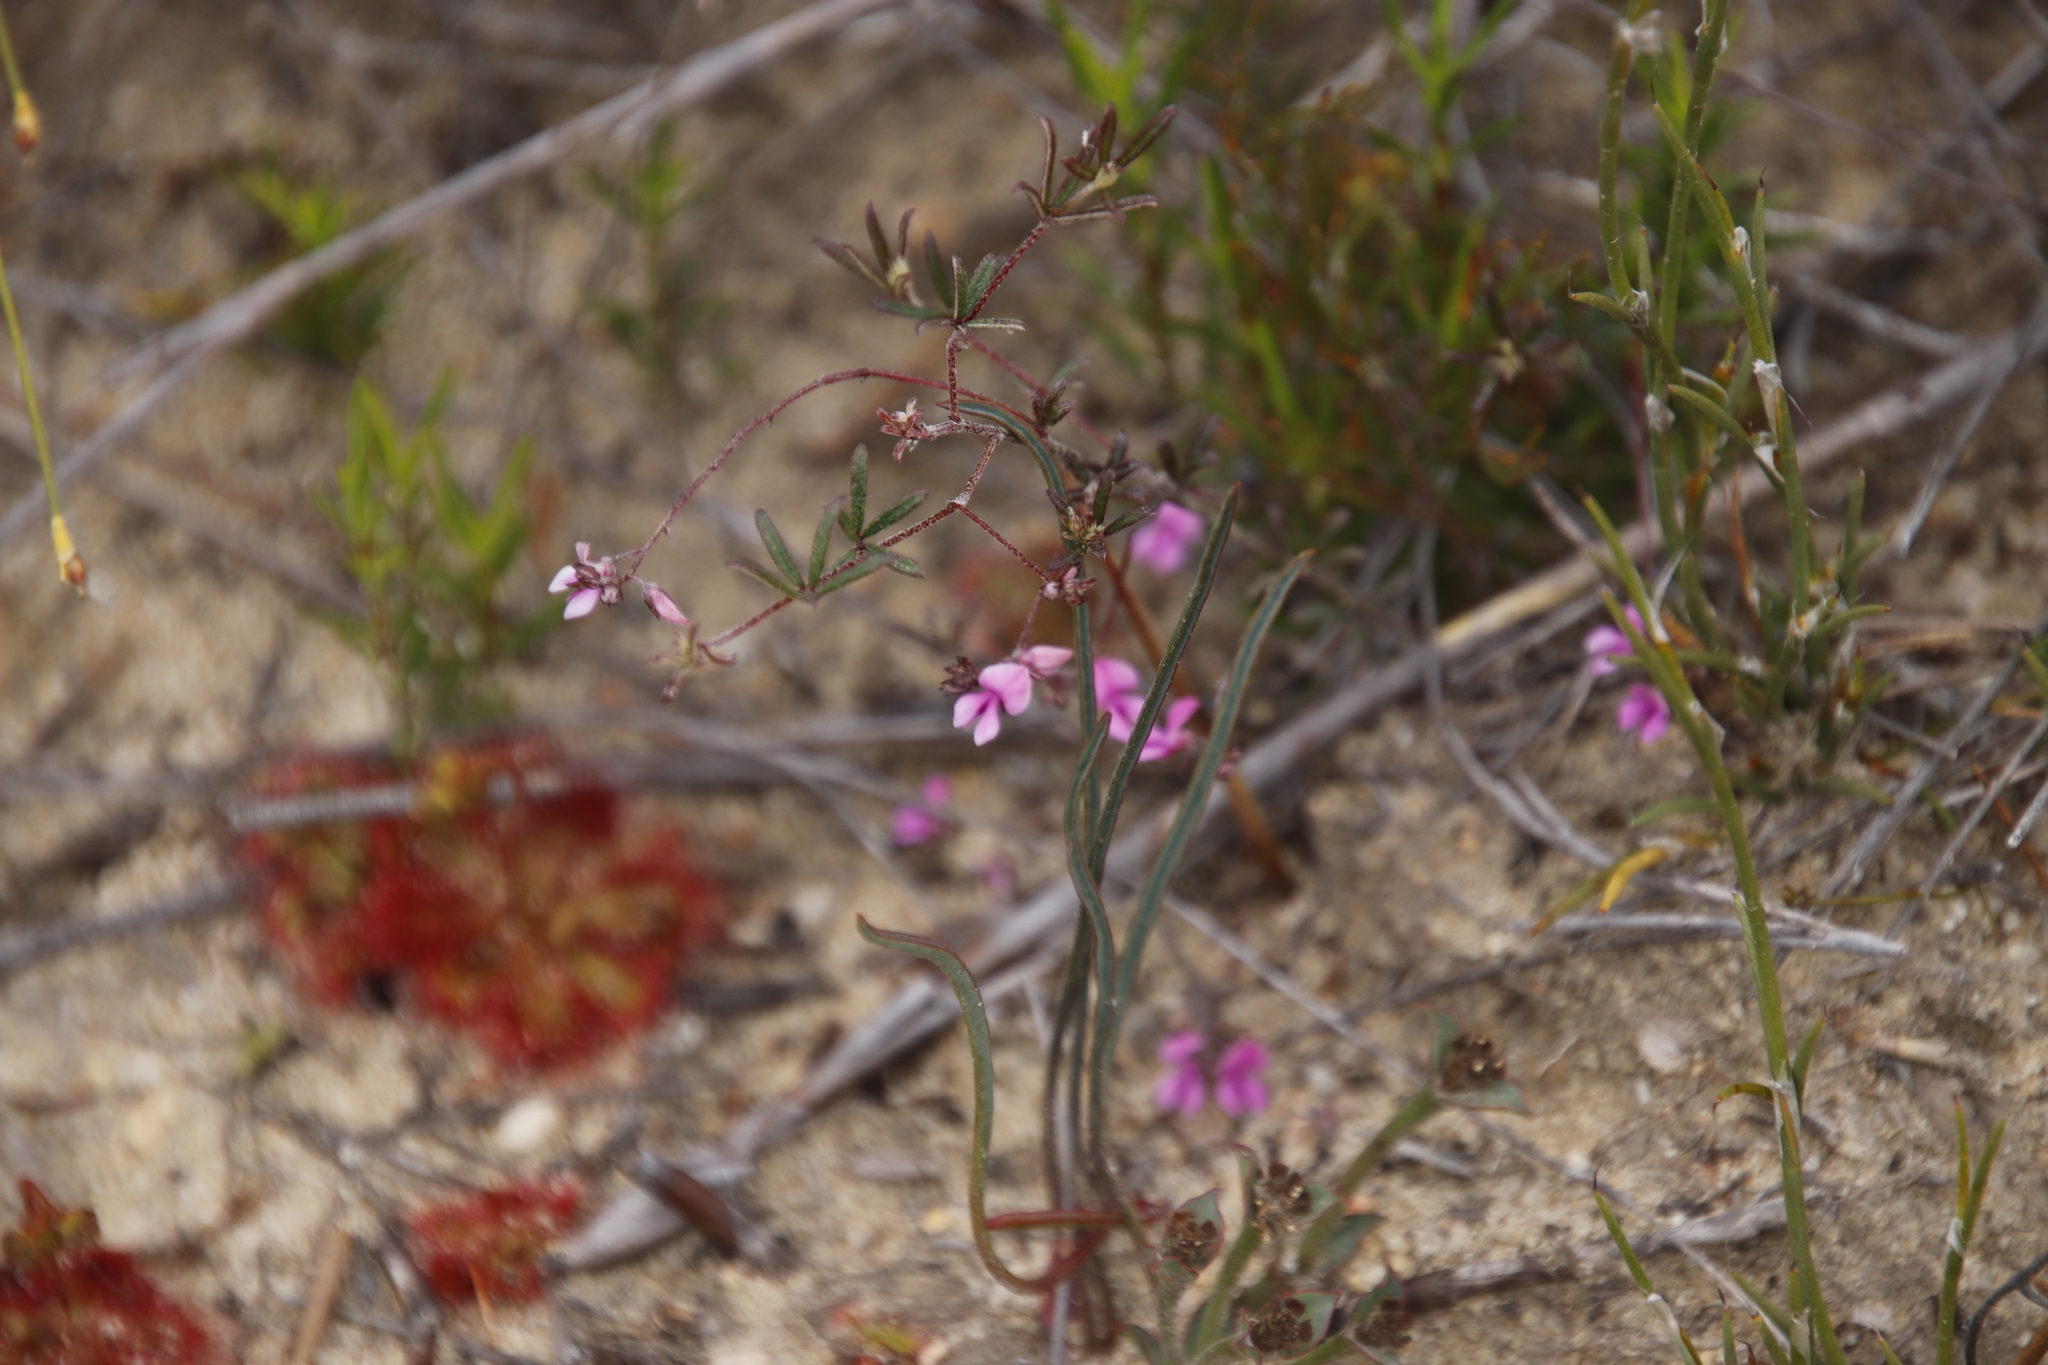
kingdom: Plantae
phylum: Tracheophyta
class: Magnoliopsida
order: Fabales
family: Fabaceae
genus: Indigofera
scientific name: Indigofera mischocarpa
